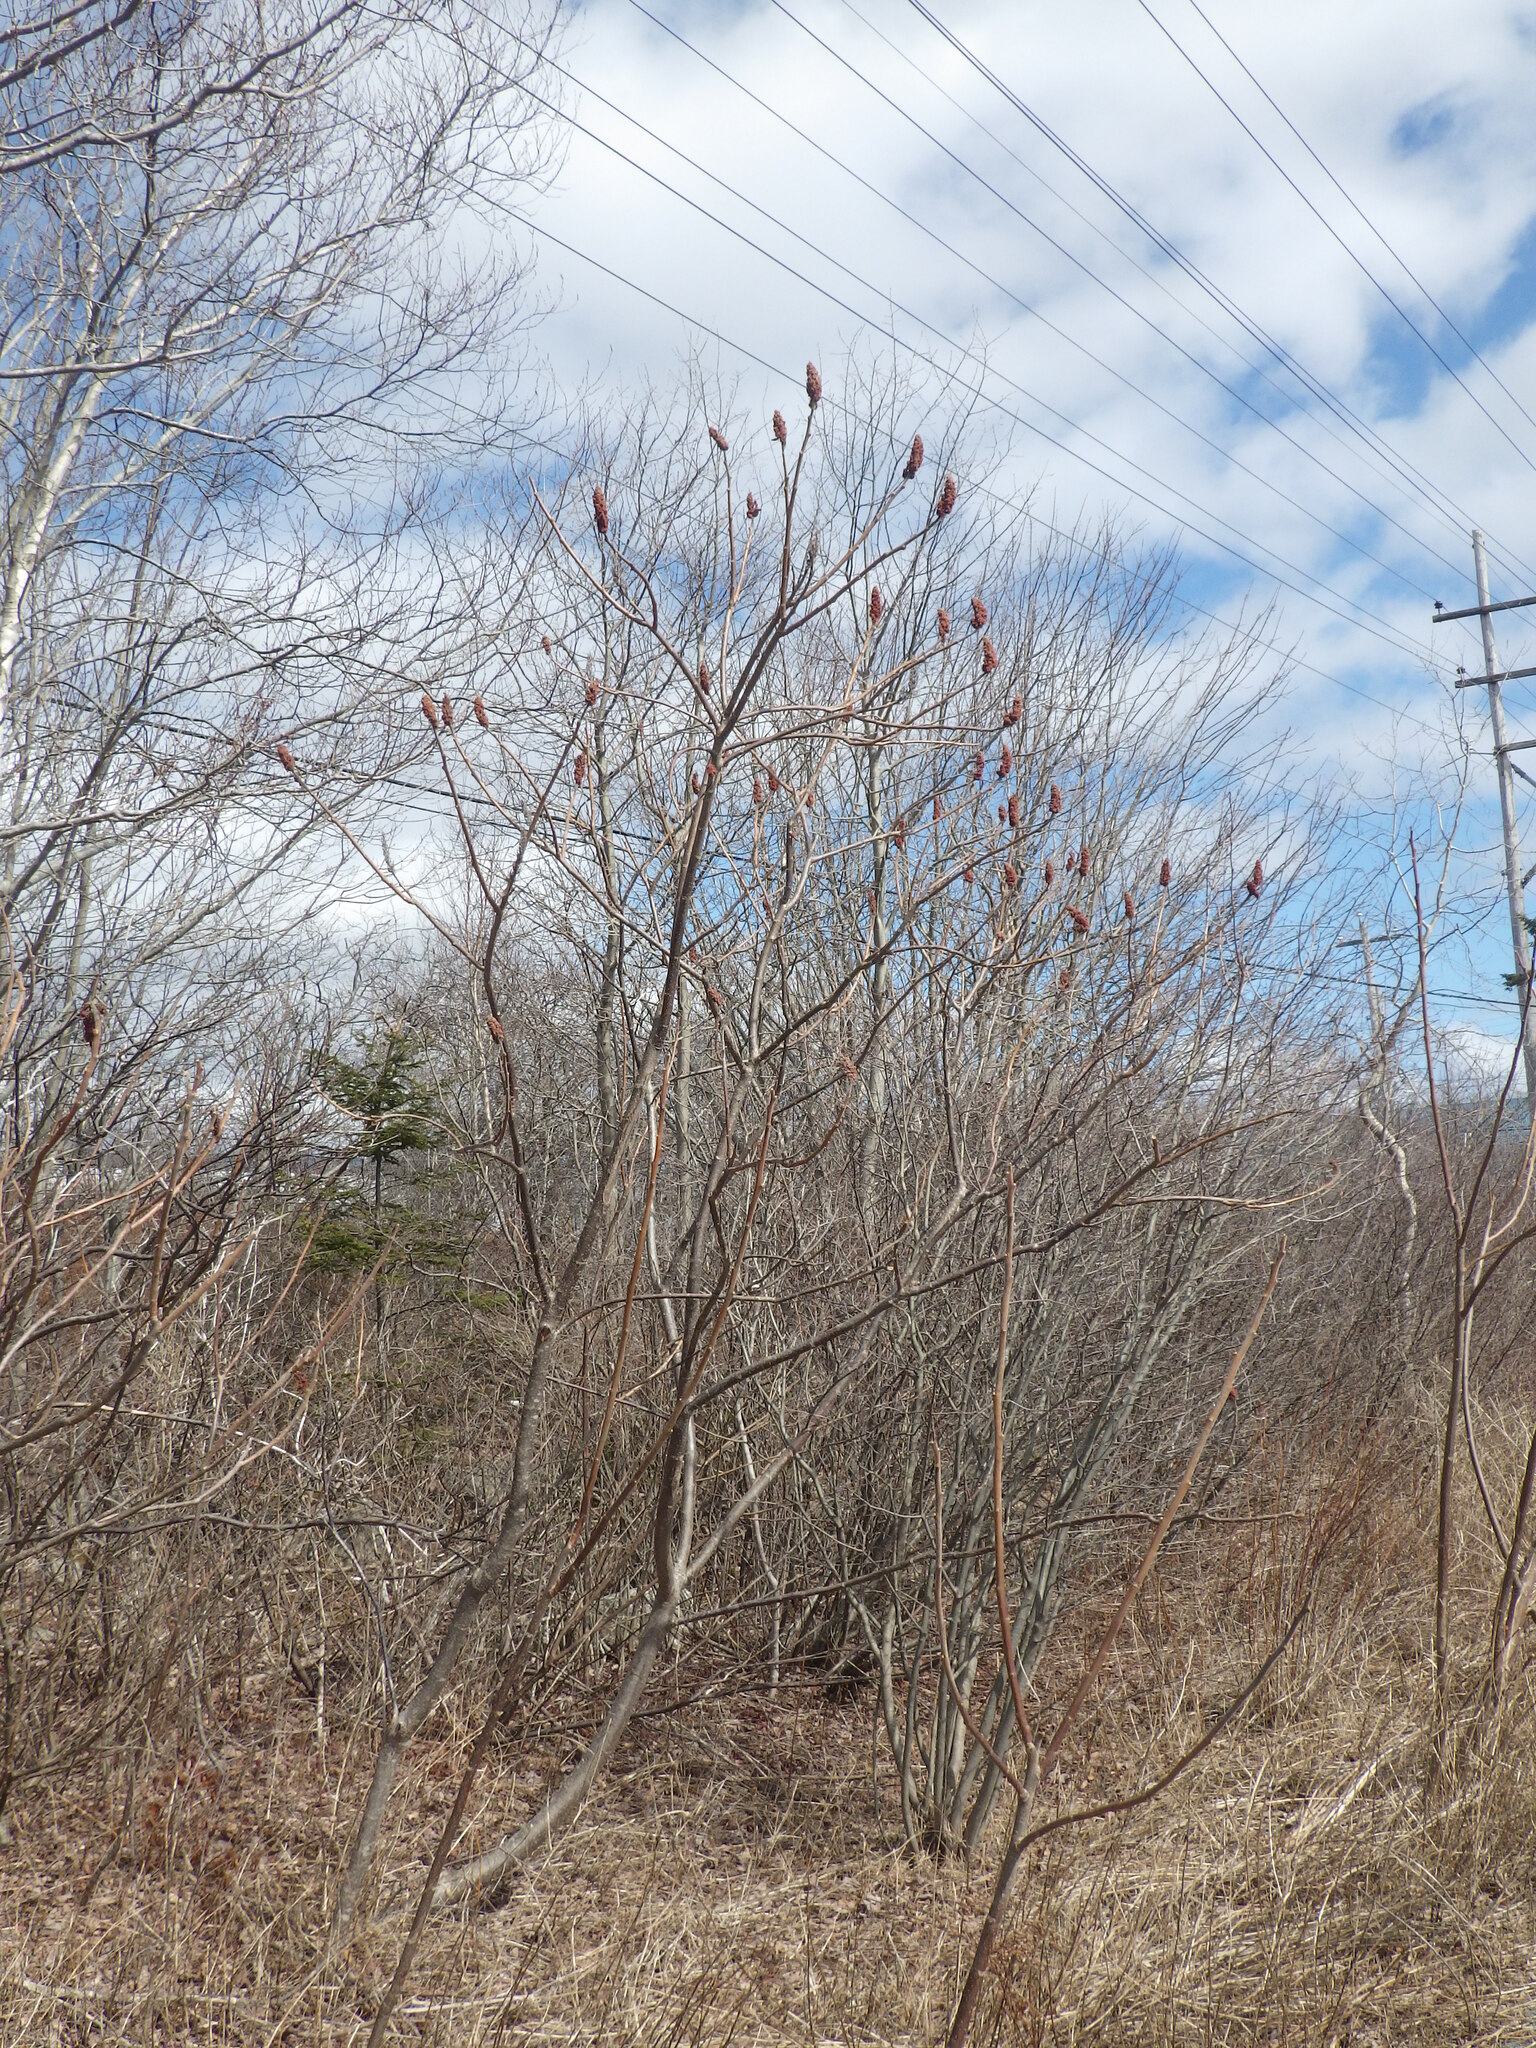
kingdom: Plantae
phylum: Tracheophyta
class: Magnoliopsida
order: Sapindales
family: Anacardiaceae
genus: Rhus
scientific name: Rhus typhina
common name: Staghorn sumac
